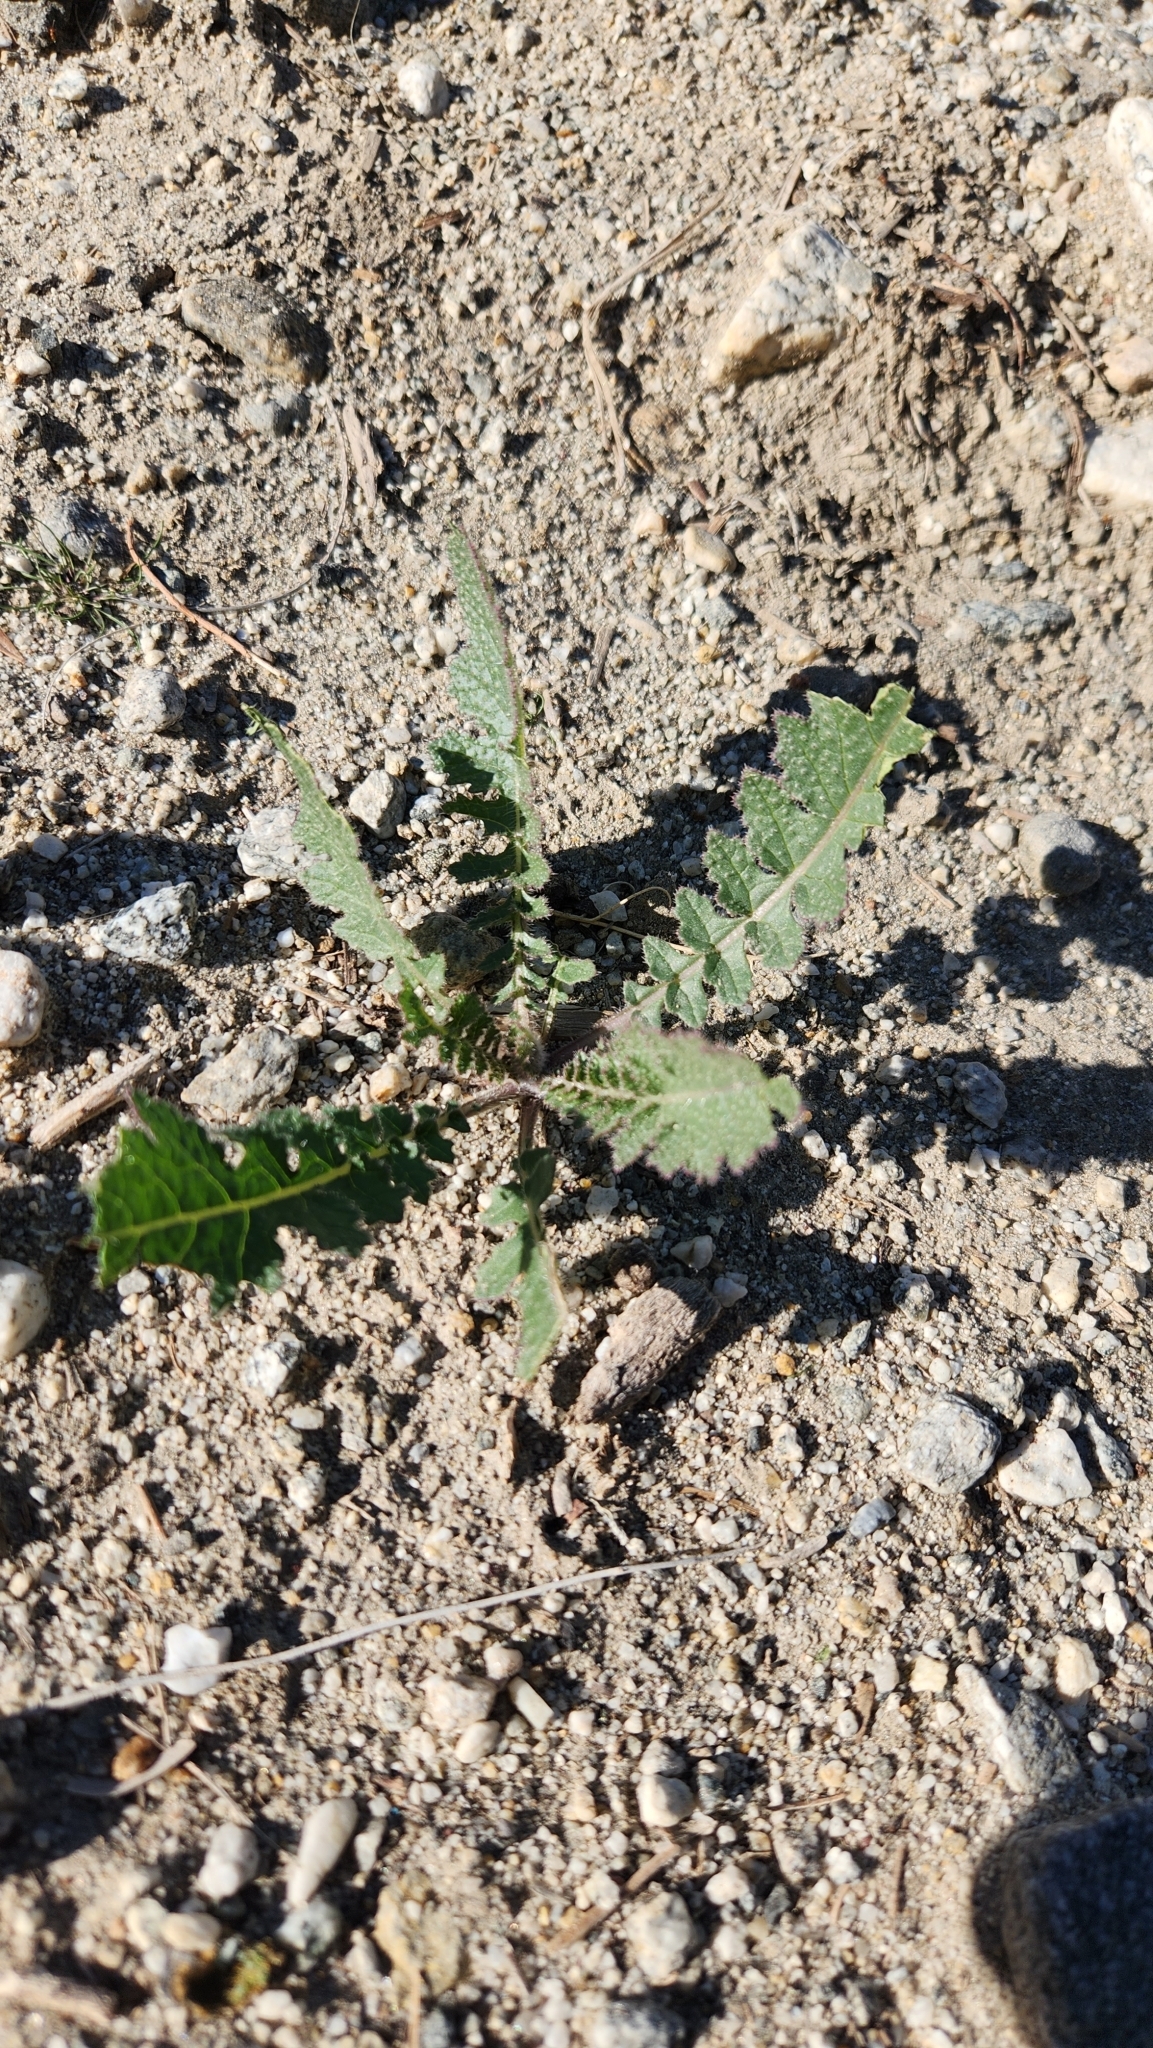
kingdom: Plantae
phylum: Tracheophyta
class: Magnoliopsida
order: Brassicales
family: Brassicaceae
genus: Brassica
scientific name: Brassica tournefortii
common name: Pale cabbage
